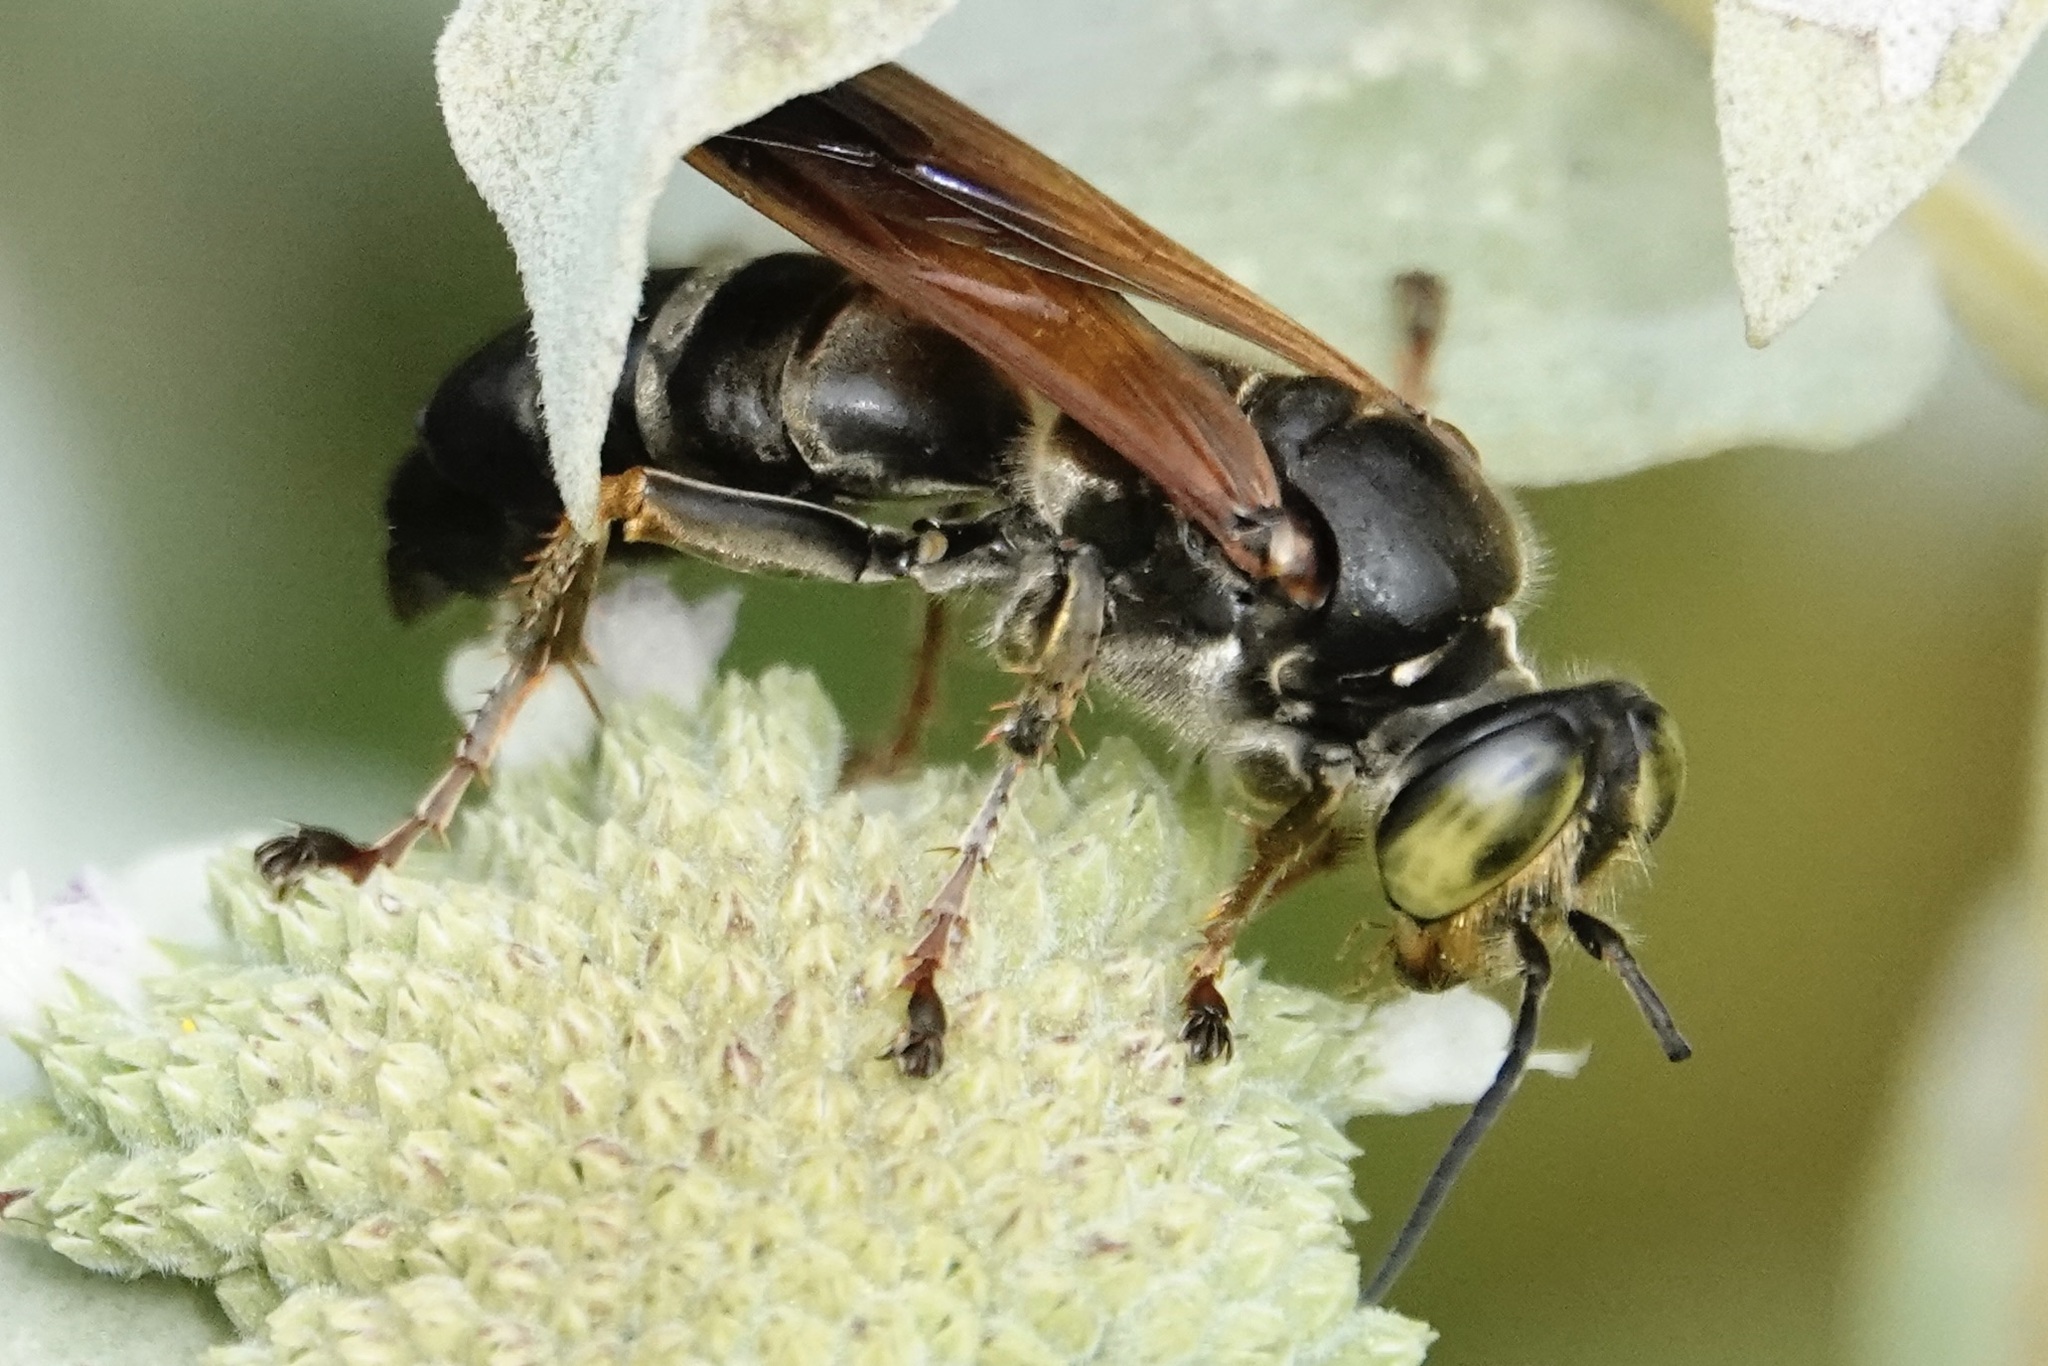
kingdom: Animalia
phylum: Arthropoda
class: Insecta
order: Hymenoptera
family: Crabronidae
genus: Tachytes
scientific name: Tachytes guatemalensis
